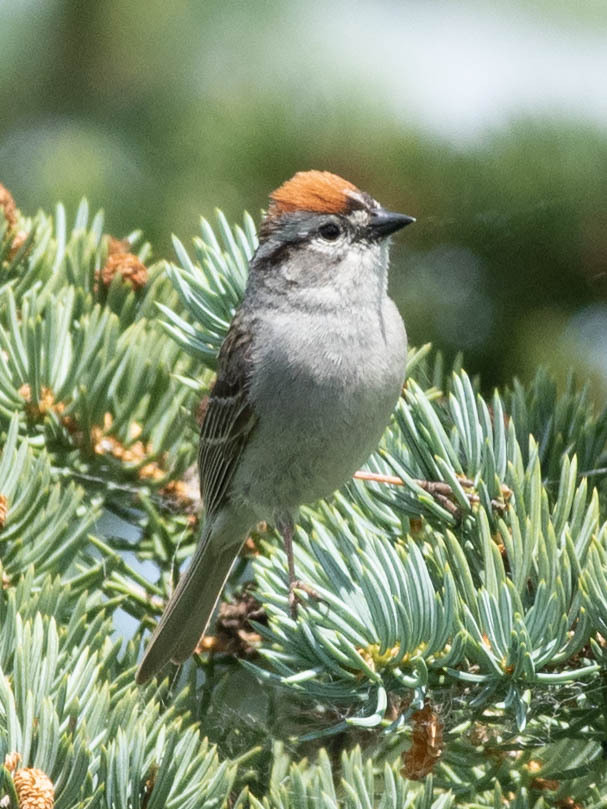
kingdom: Animalia
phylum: Chordata
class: Aves
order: Passeriformes
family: Passerellidae
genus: Spizella
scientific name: Spizella passerina
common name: Chipping sparrow
